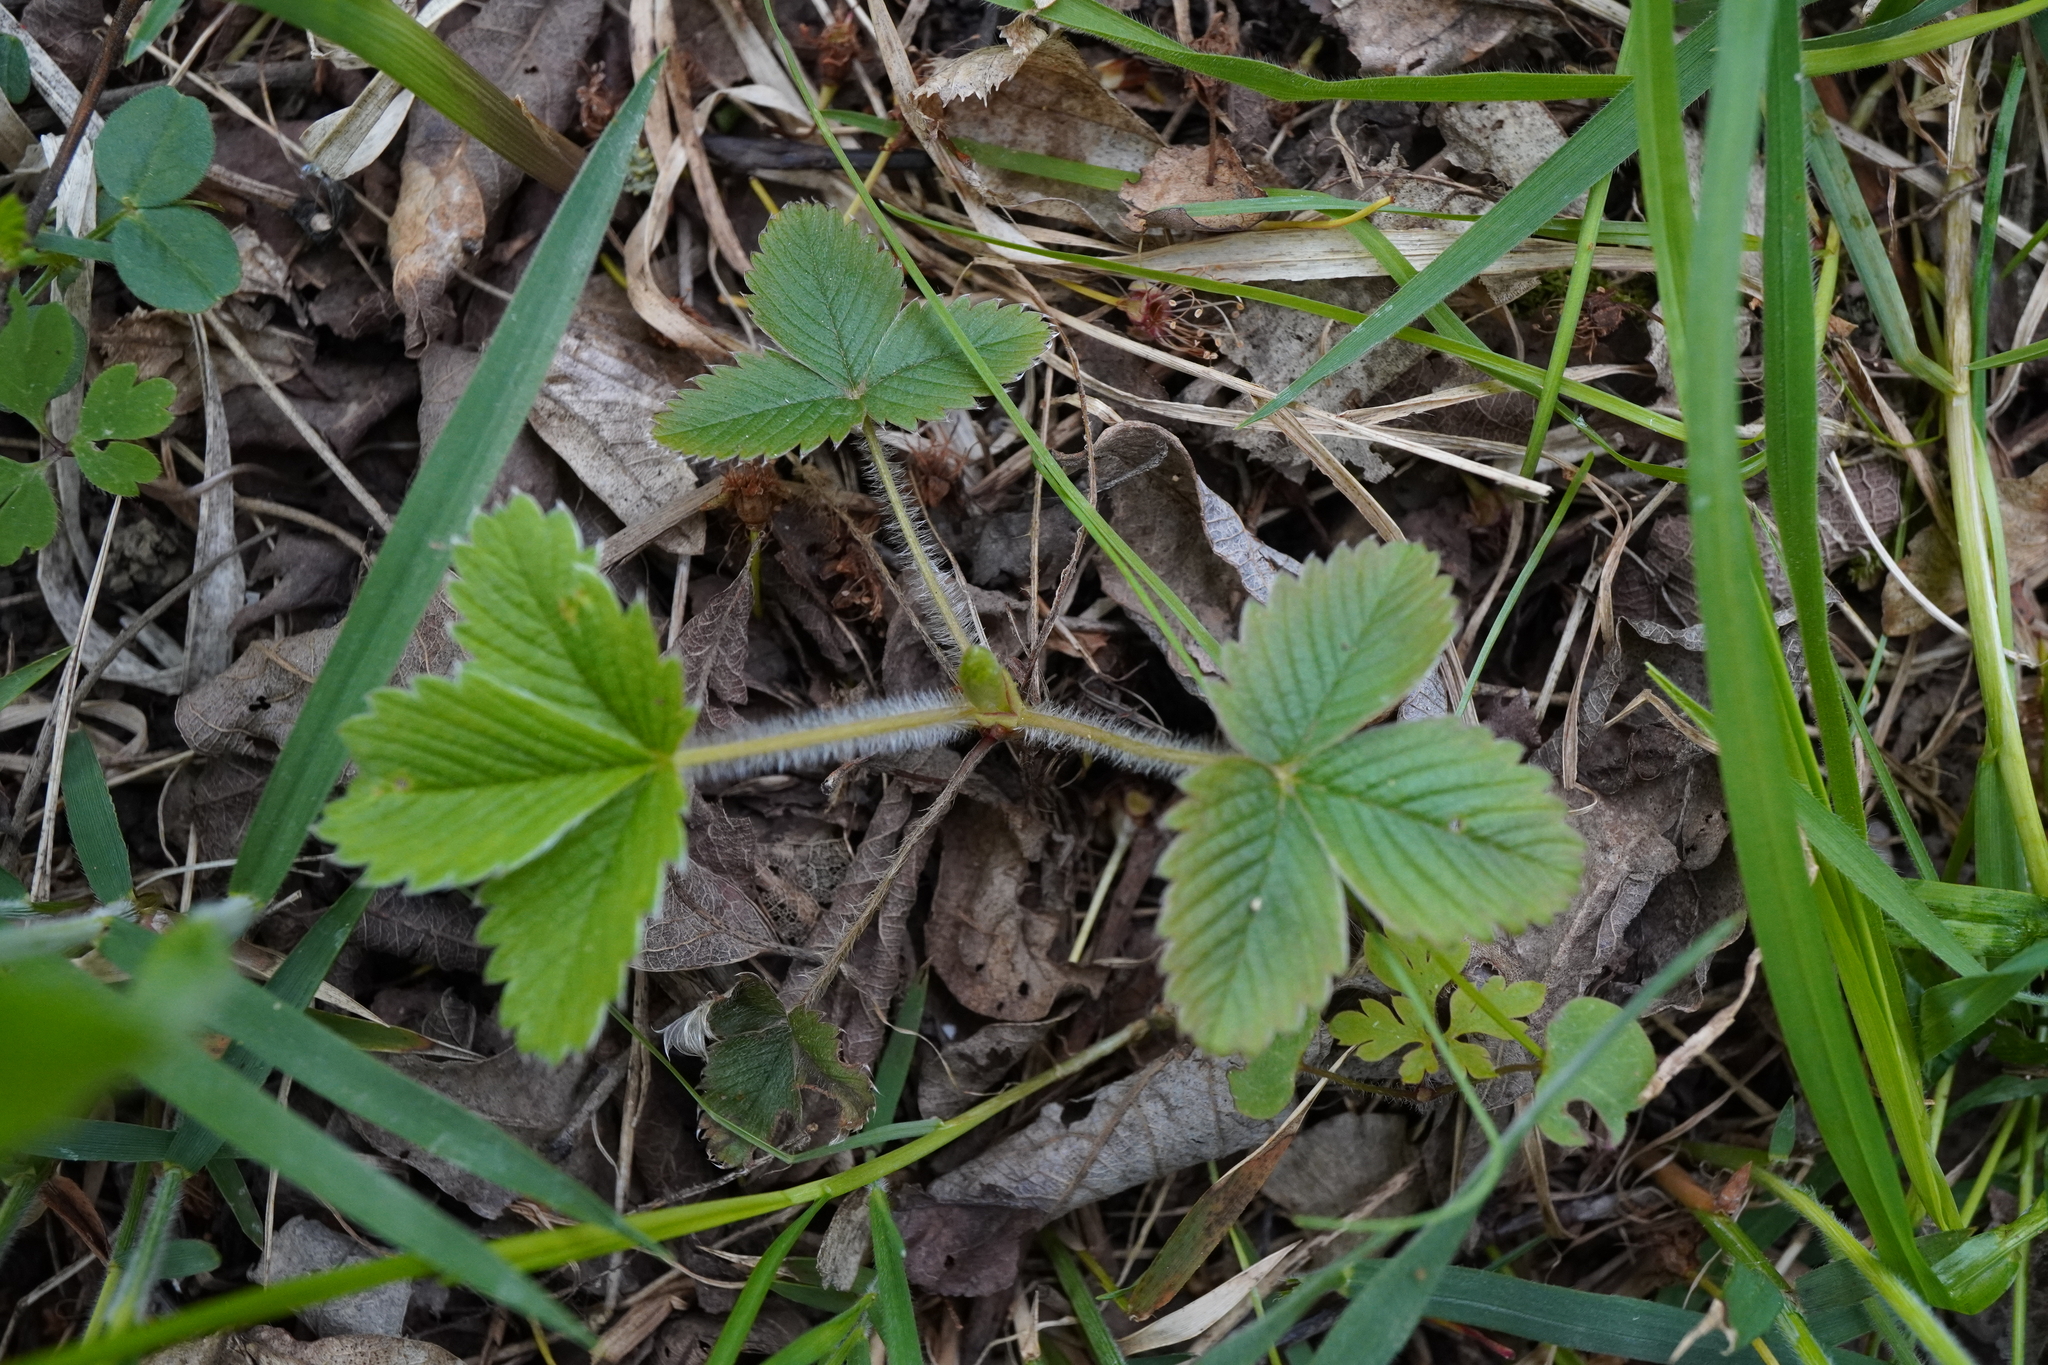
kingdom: Plantae
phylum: Tracheophyta
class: Magnoliopsida
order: Rosales
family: Rosaceae
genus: Fragaria
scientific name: Fragaria viridis
